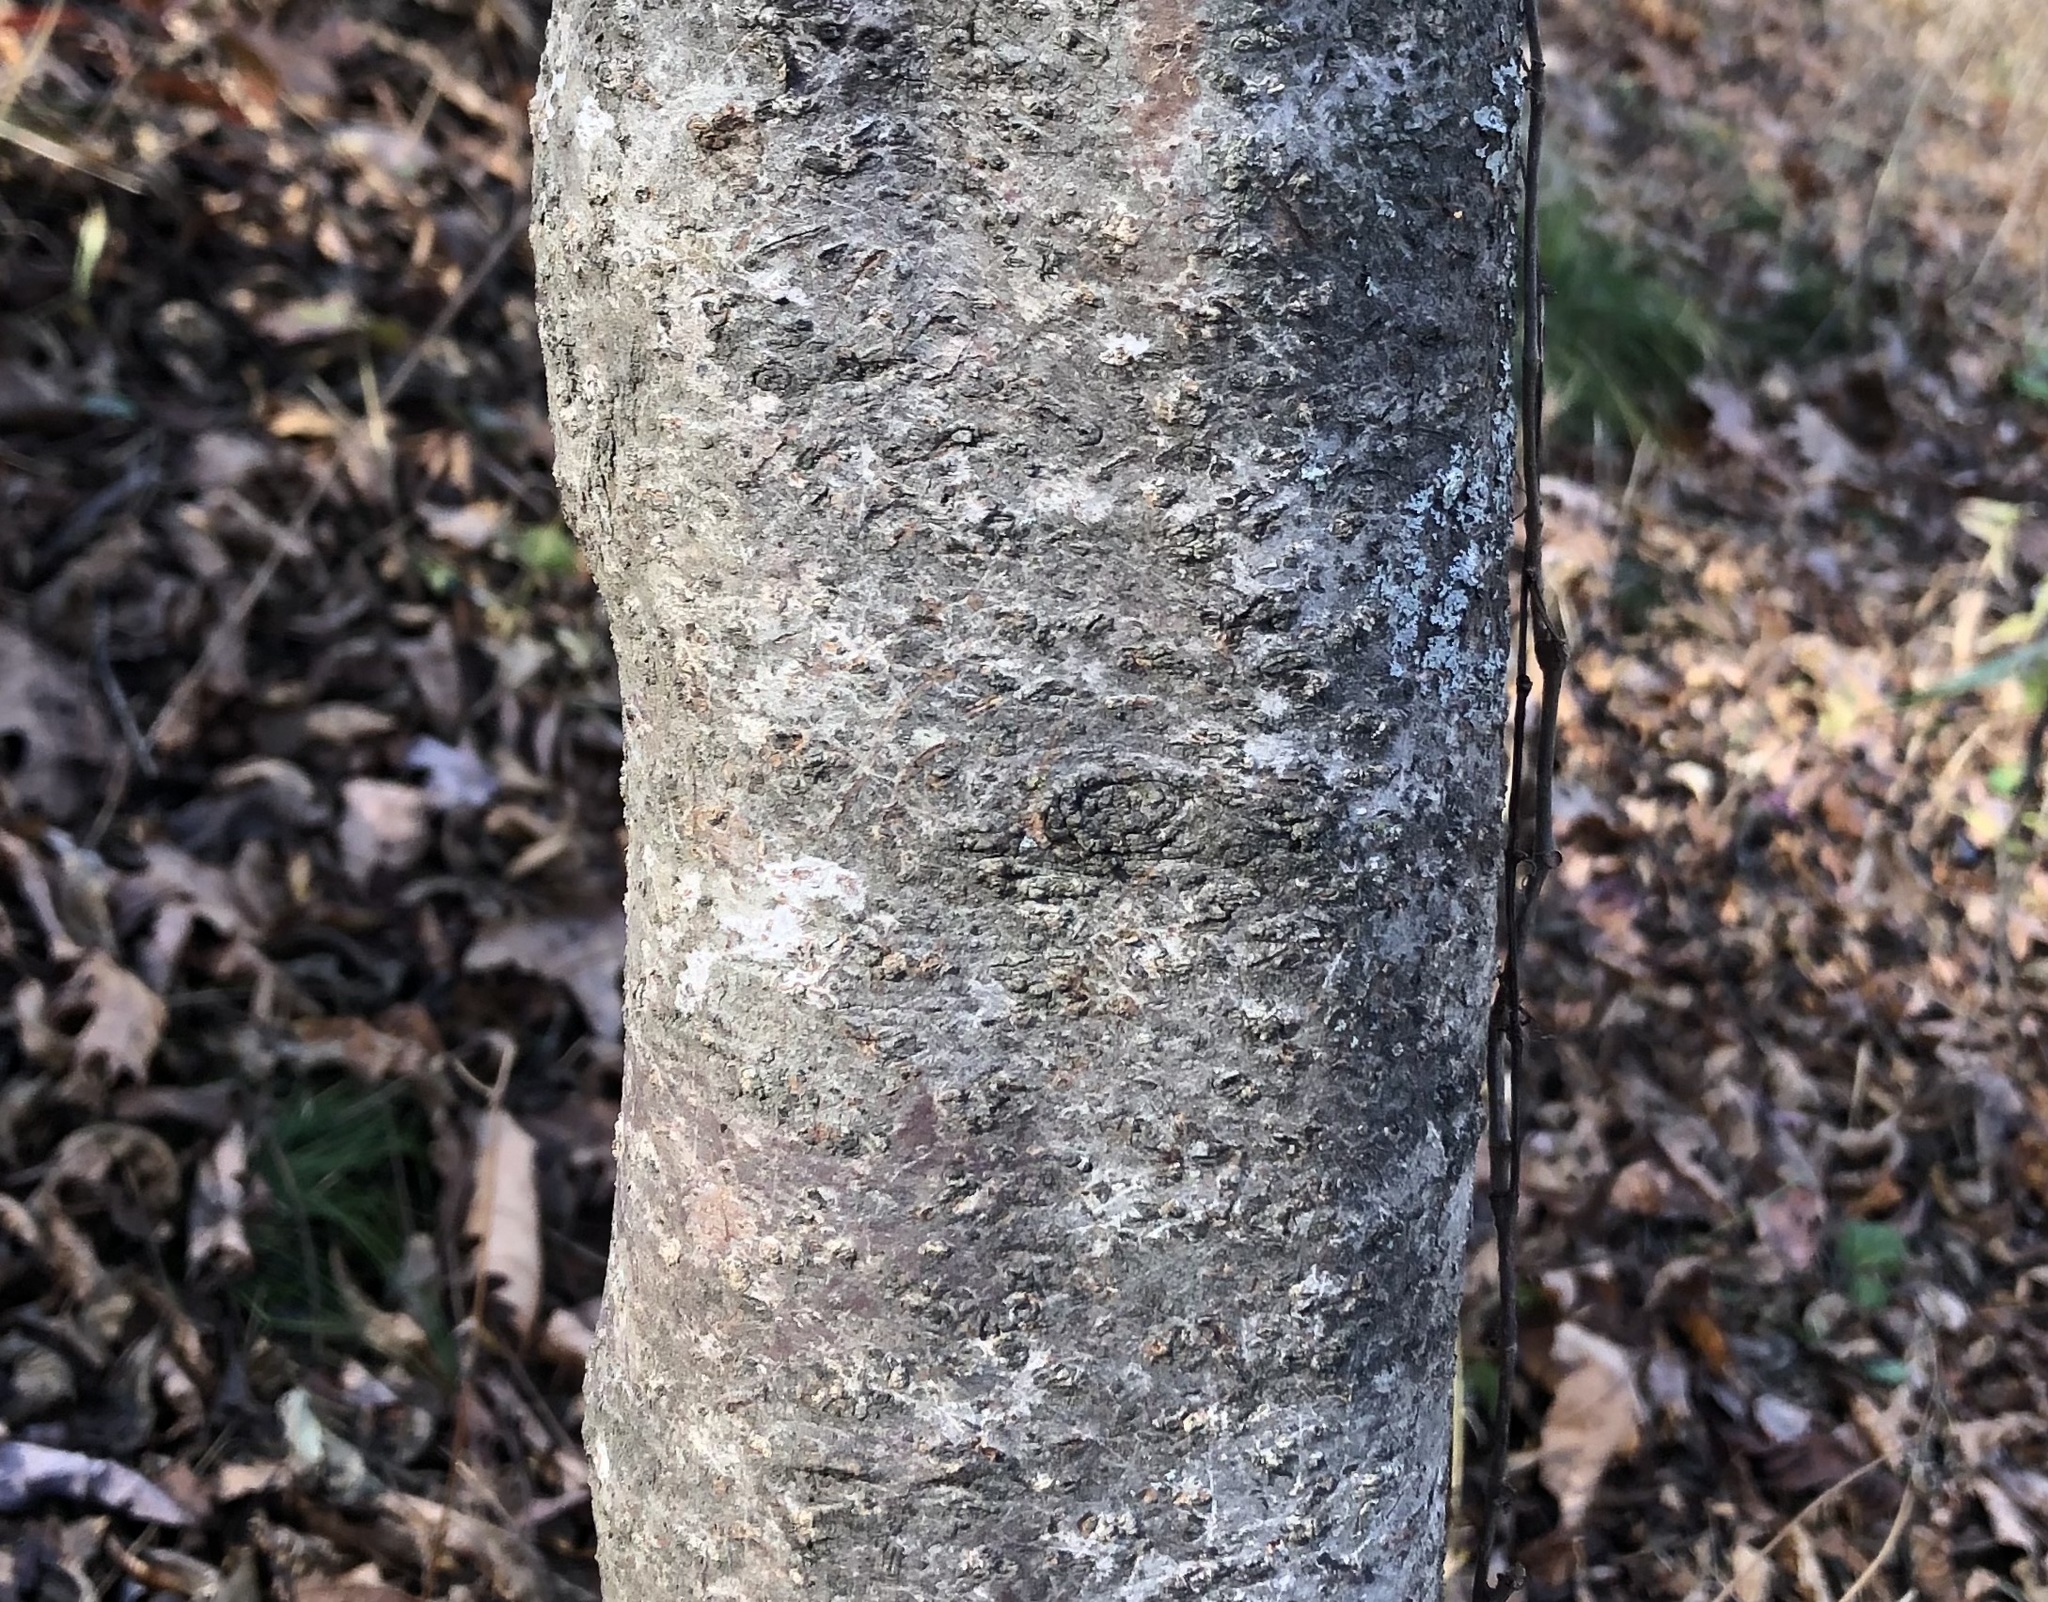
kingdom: Plantae
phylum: Tracheophyta
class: Magnoliopsida
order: Saxifragales
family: Hamamelidaceae
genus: Hamamelis
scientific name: Hamamelis virginiana
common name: Witch-hazel
